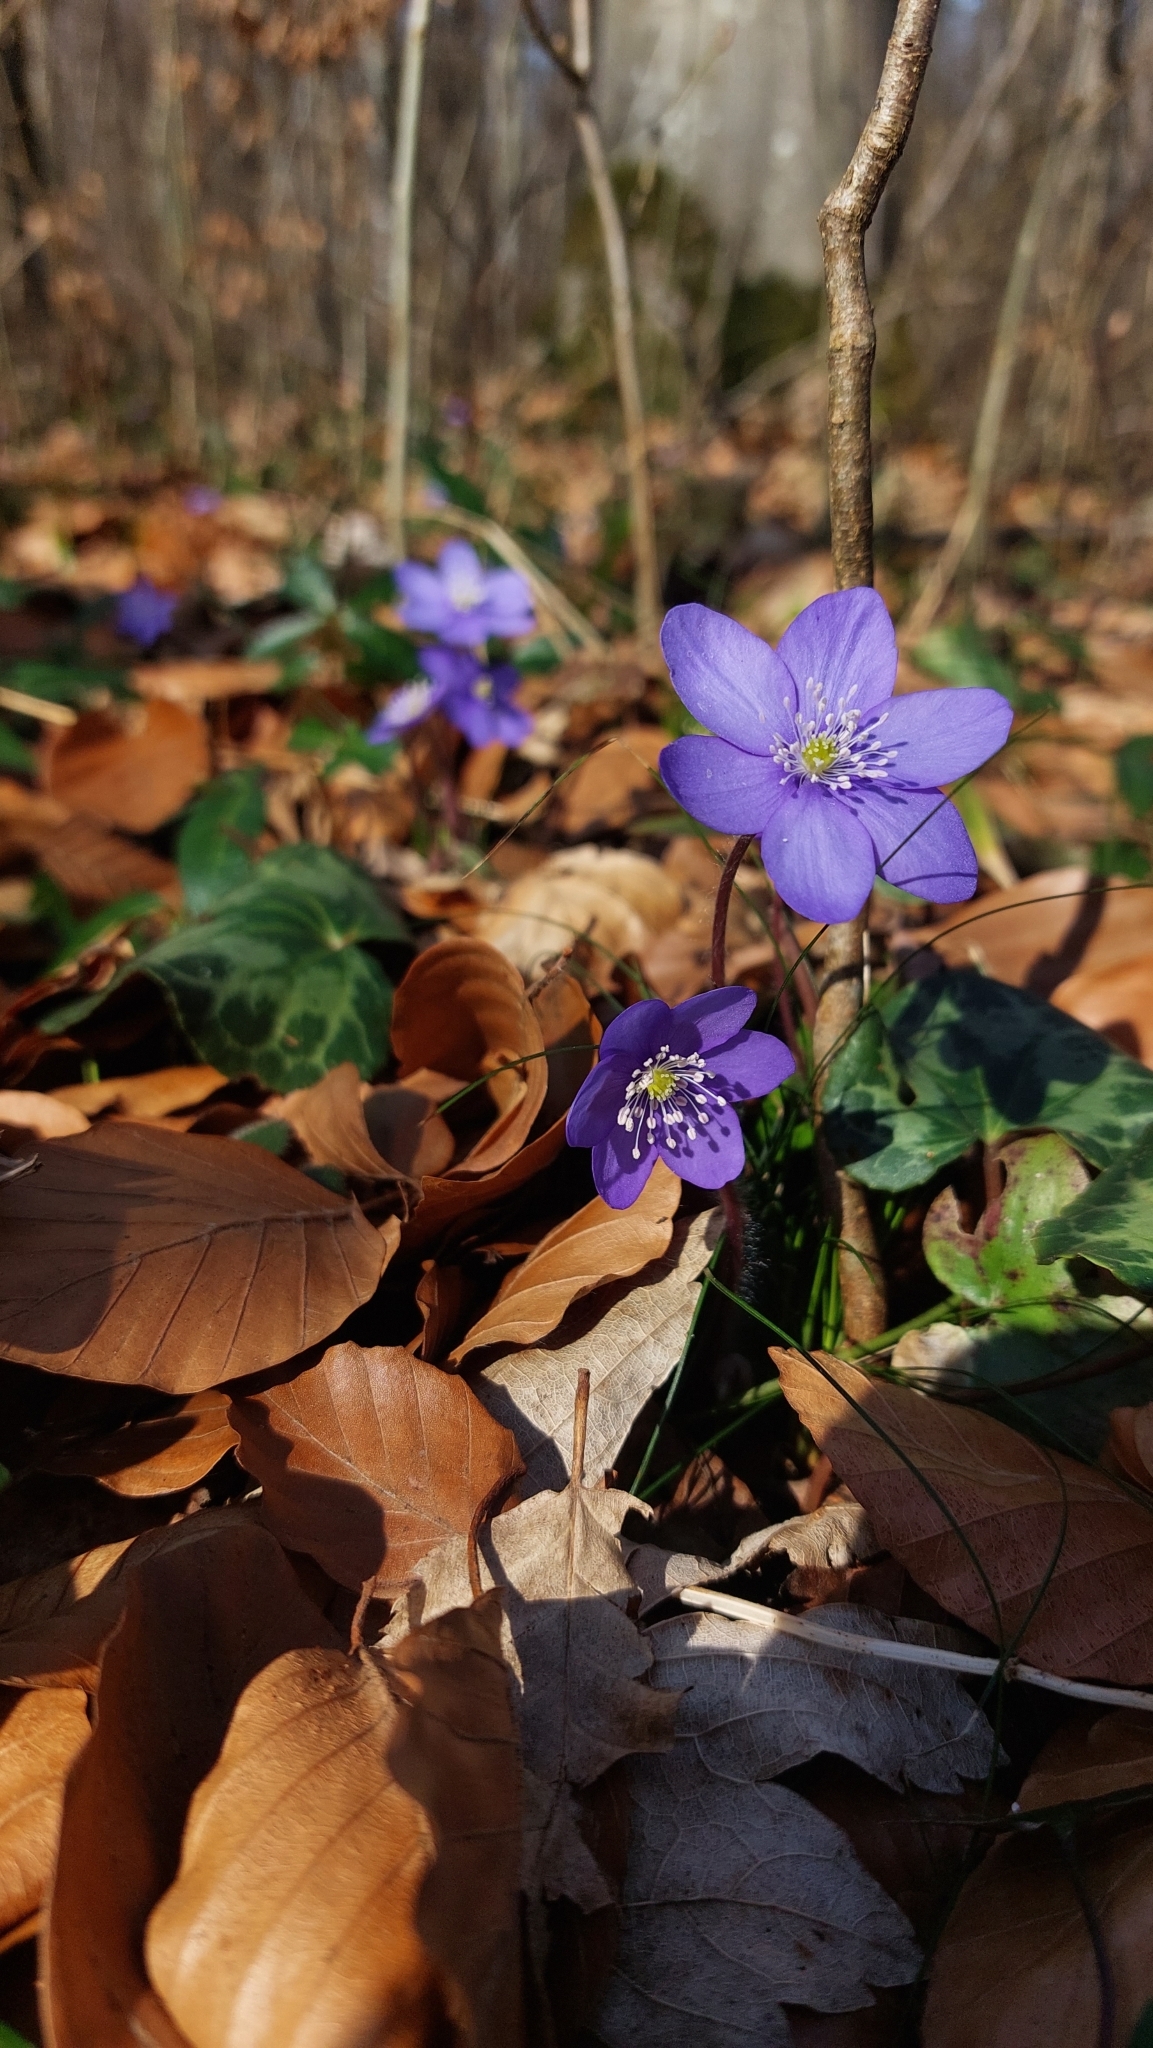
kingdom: Plantae
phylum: Tracheophyta
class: Magnoliopsida
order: Ranunculales
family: Ranunculaceae
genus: Hepatica
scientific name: Hepatica nobilis
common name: Liverleaf
